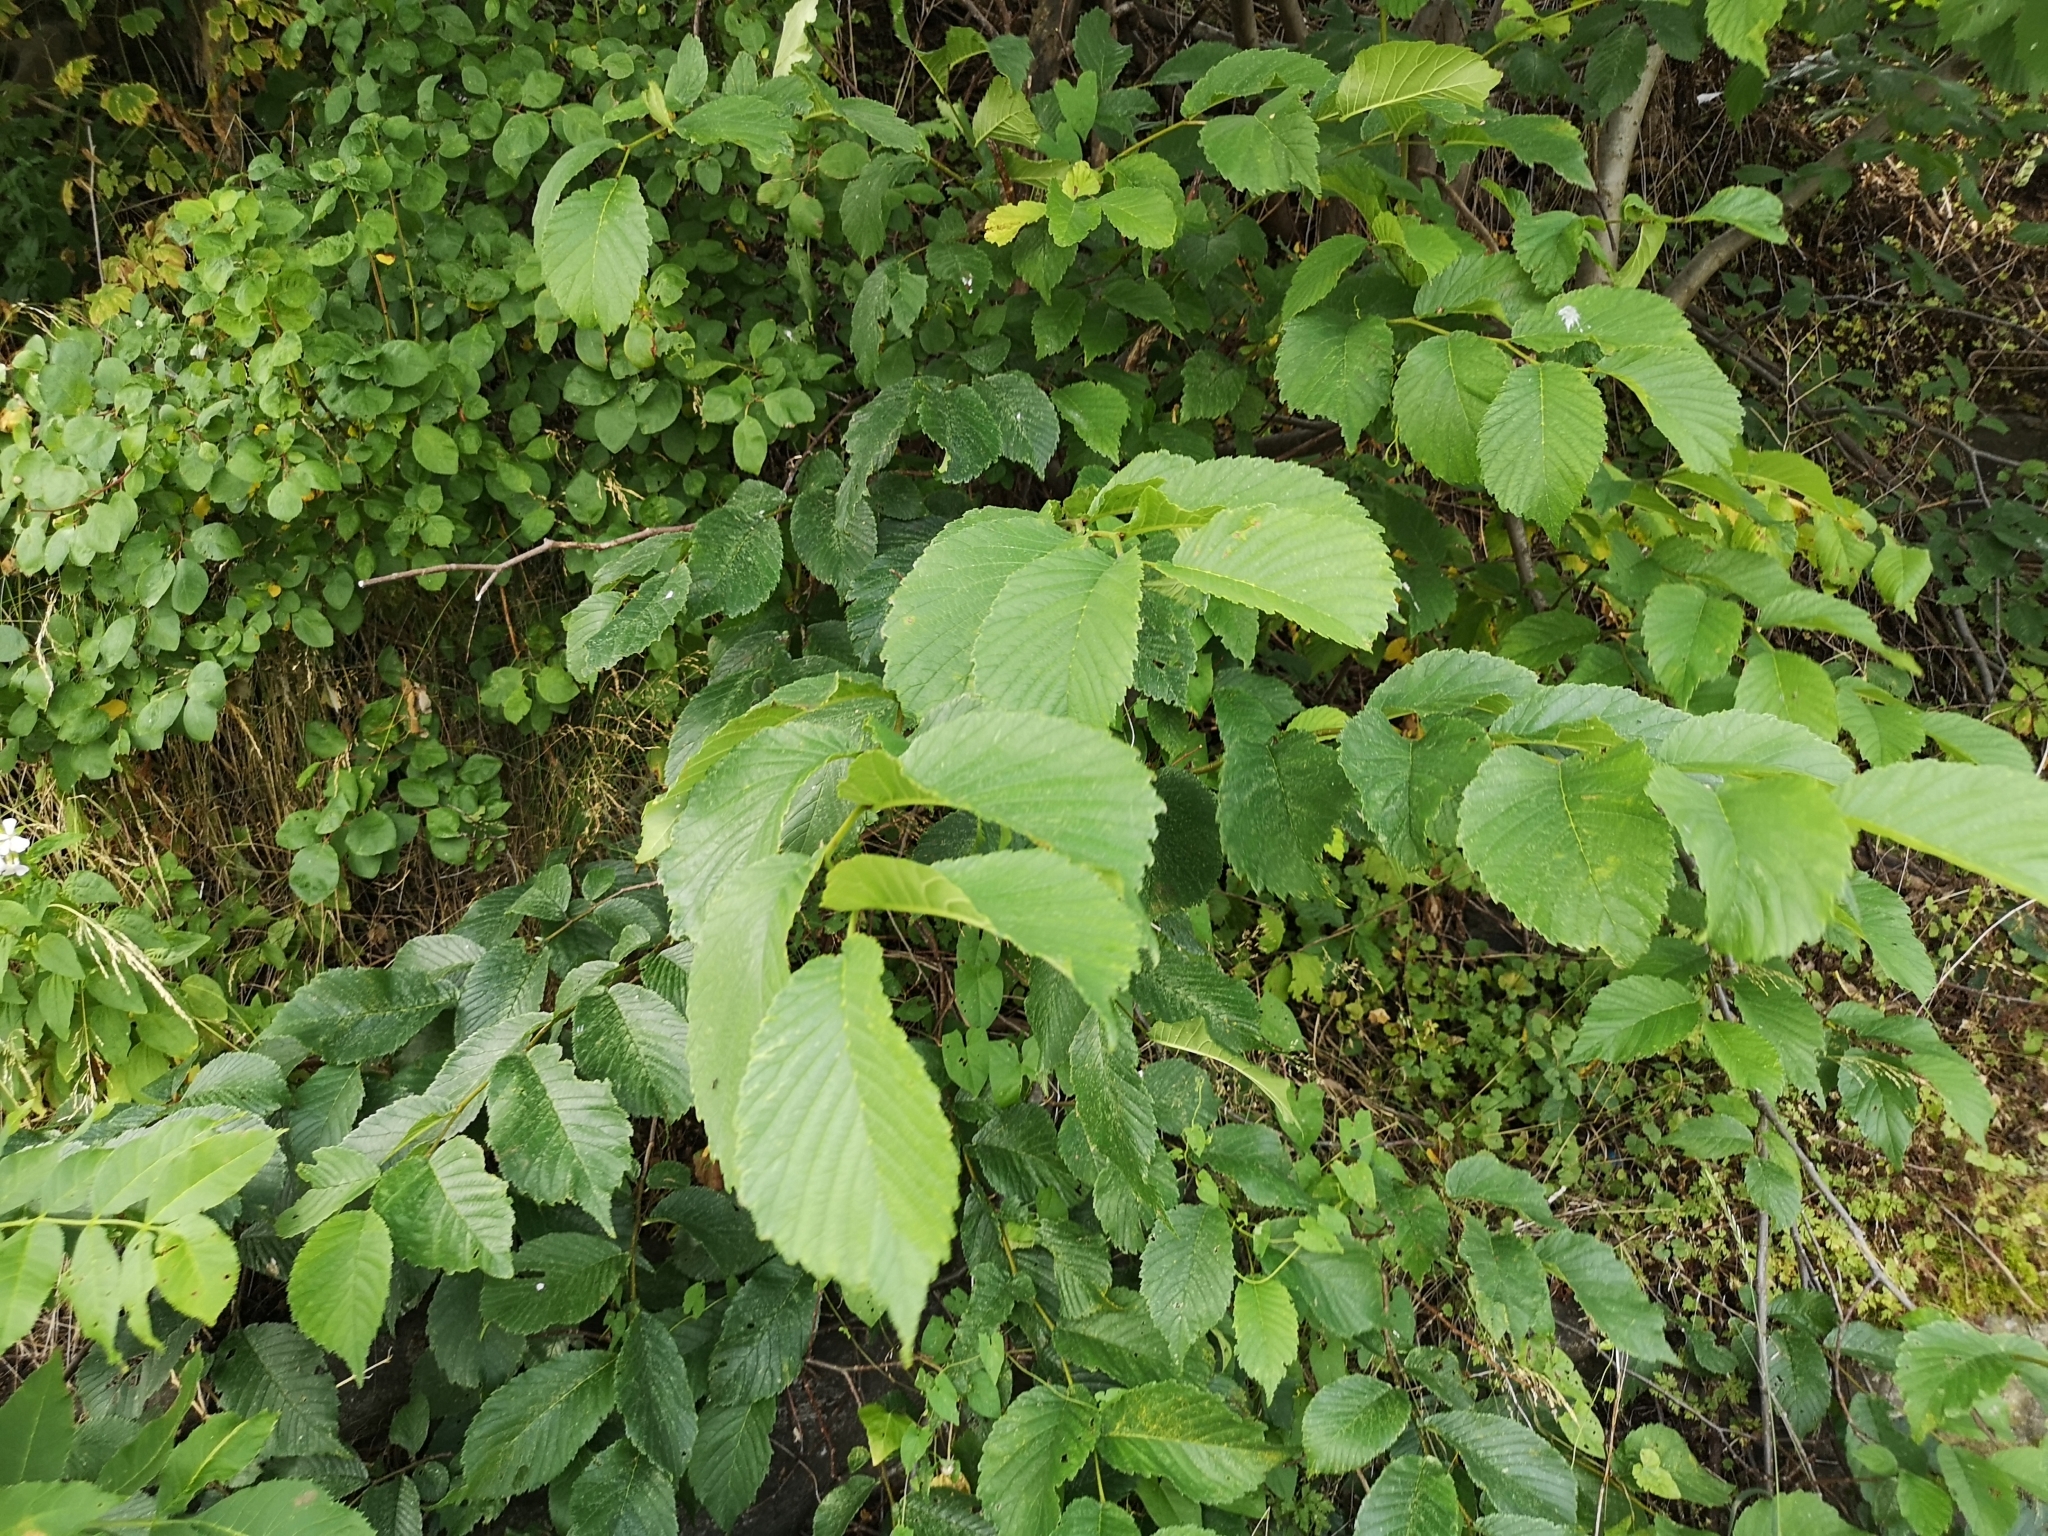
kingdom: Plantae
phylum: Tracheophyta
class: Magnoliopsida
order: Rosales
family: Ulmaceae
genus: Ulmus
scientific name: Ulmus glabra
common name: Wych elm
